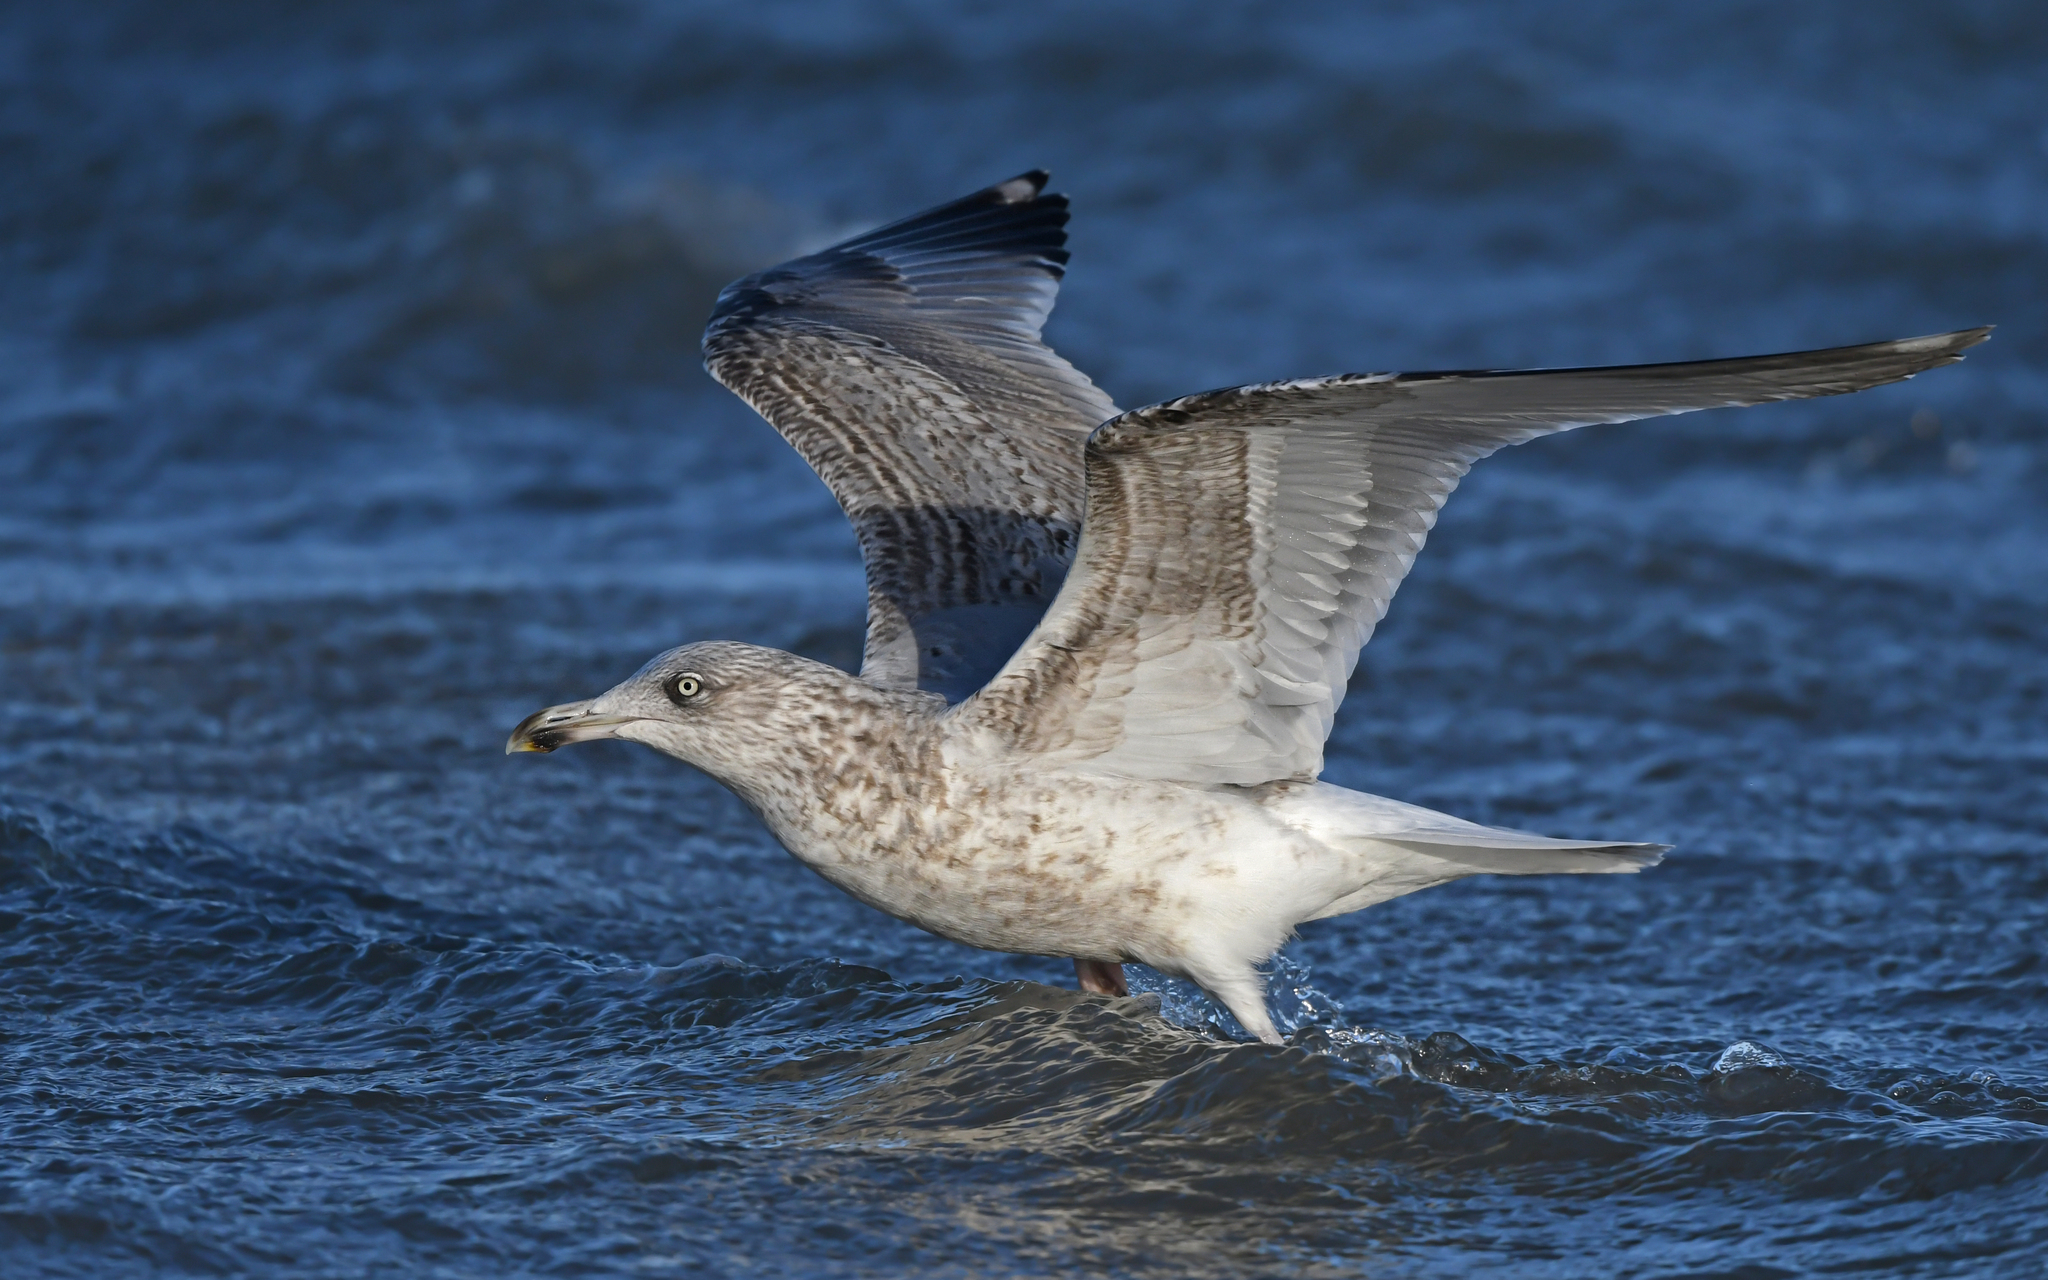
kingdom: Animalia
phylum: Chordata
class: Aves
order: Charadriiformes
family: Laridae
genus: Larus
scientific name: Larus argentatus
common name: Herring gull
